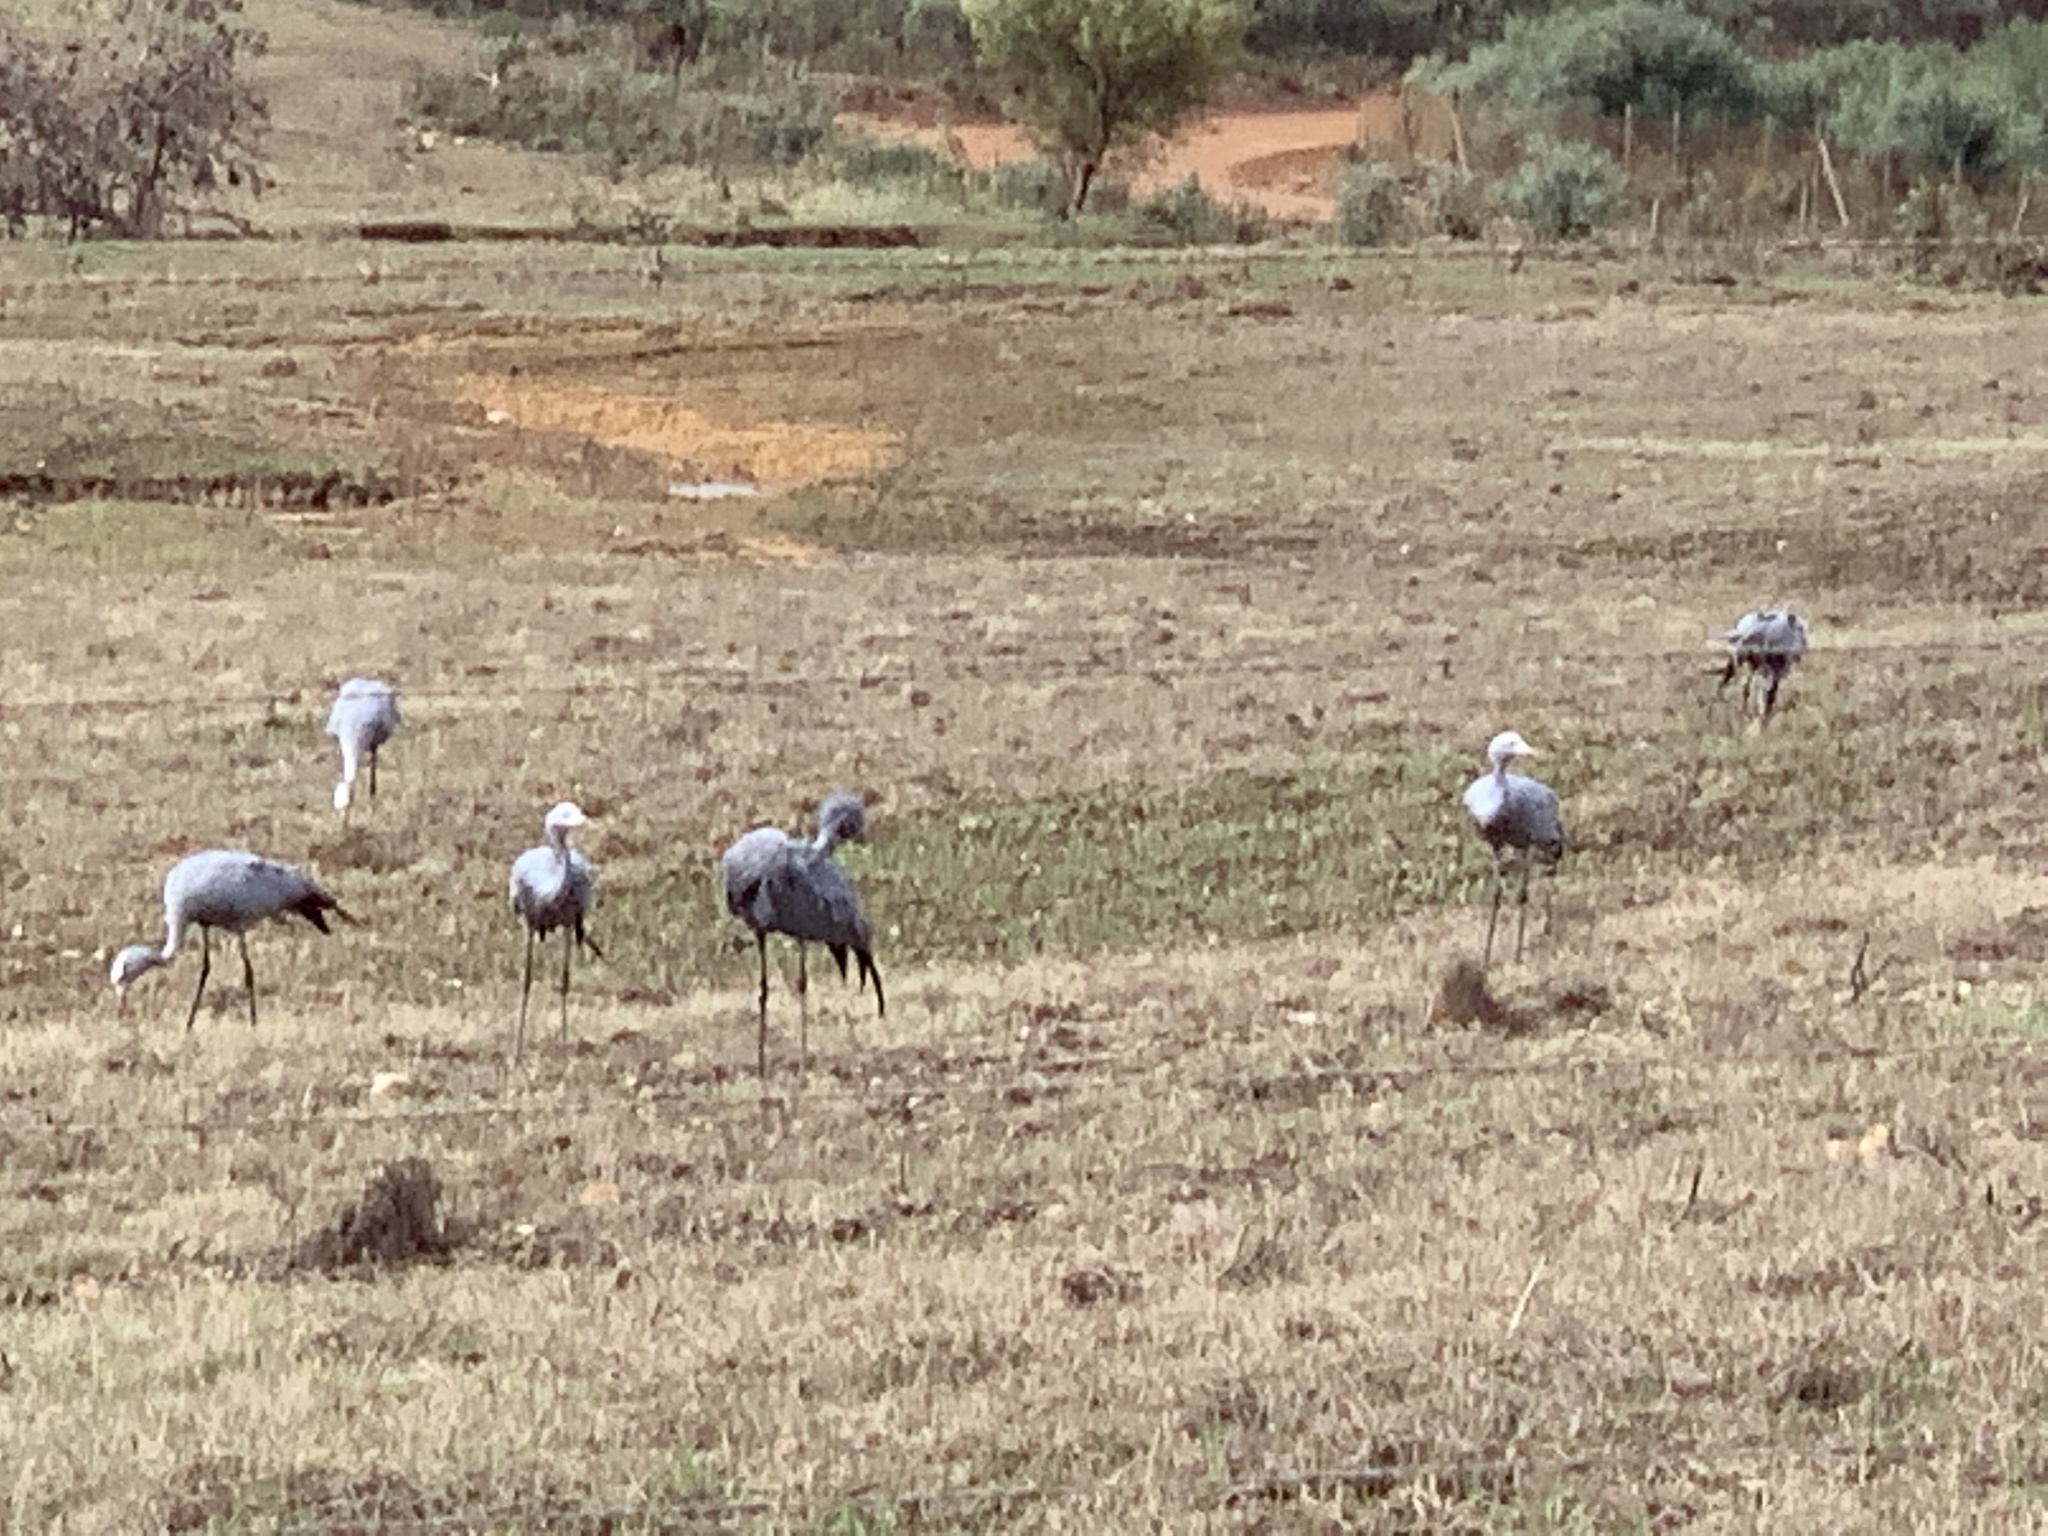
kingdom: Animalia
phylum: Chordata
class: Aves
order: Gruiformes
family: Gruidae
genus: Anthropoides
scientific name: Anthropoides paradiseus
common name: Blue crane
